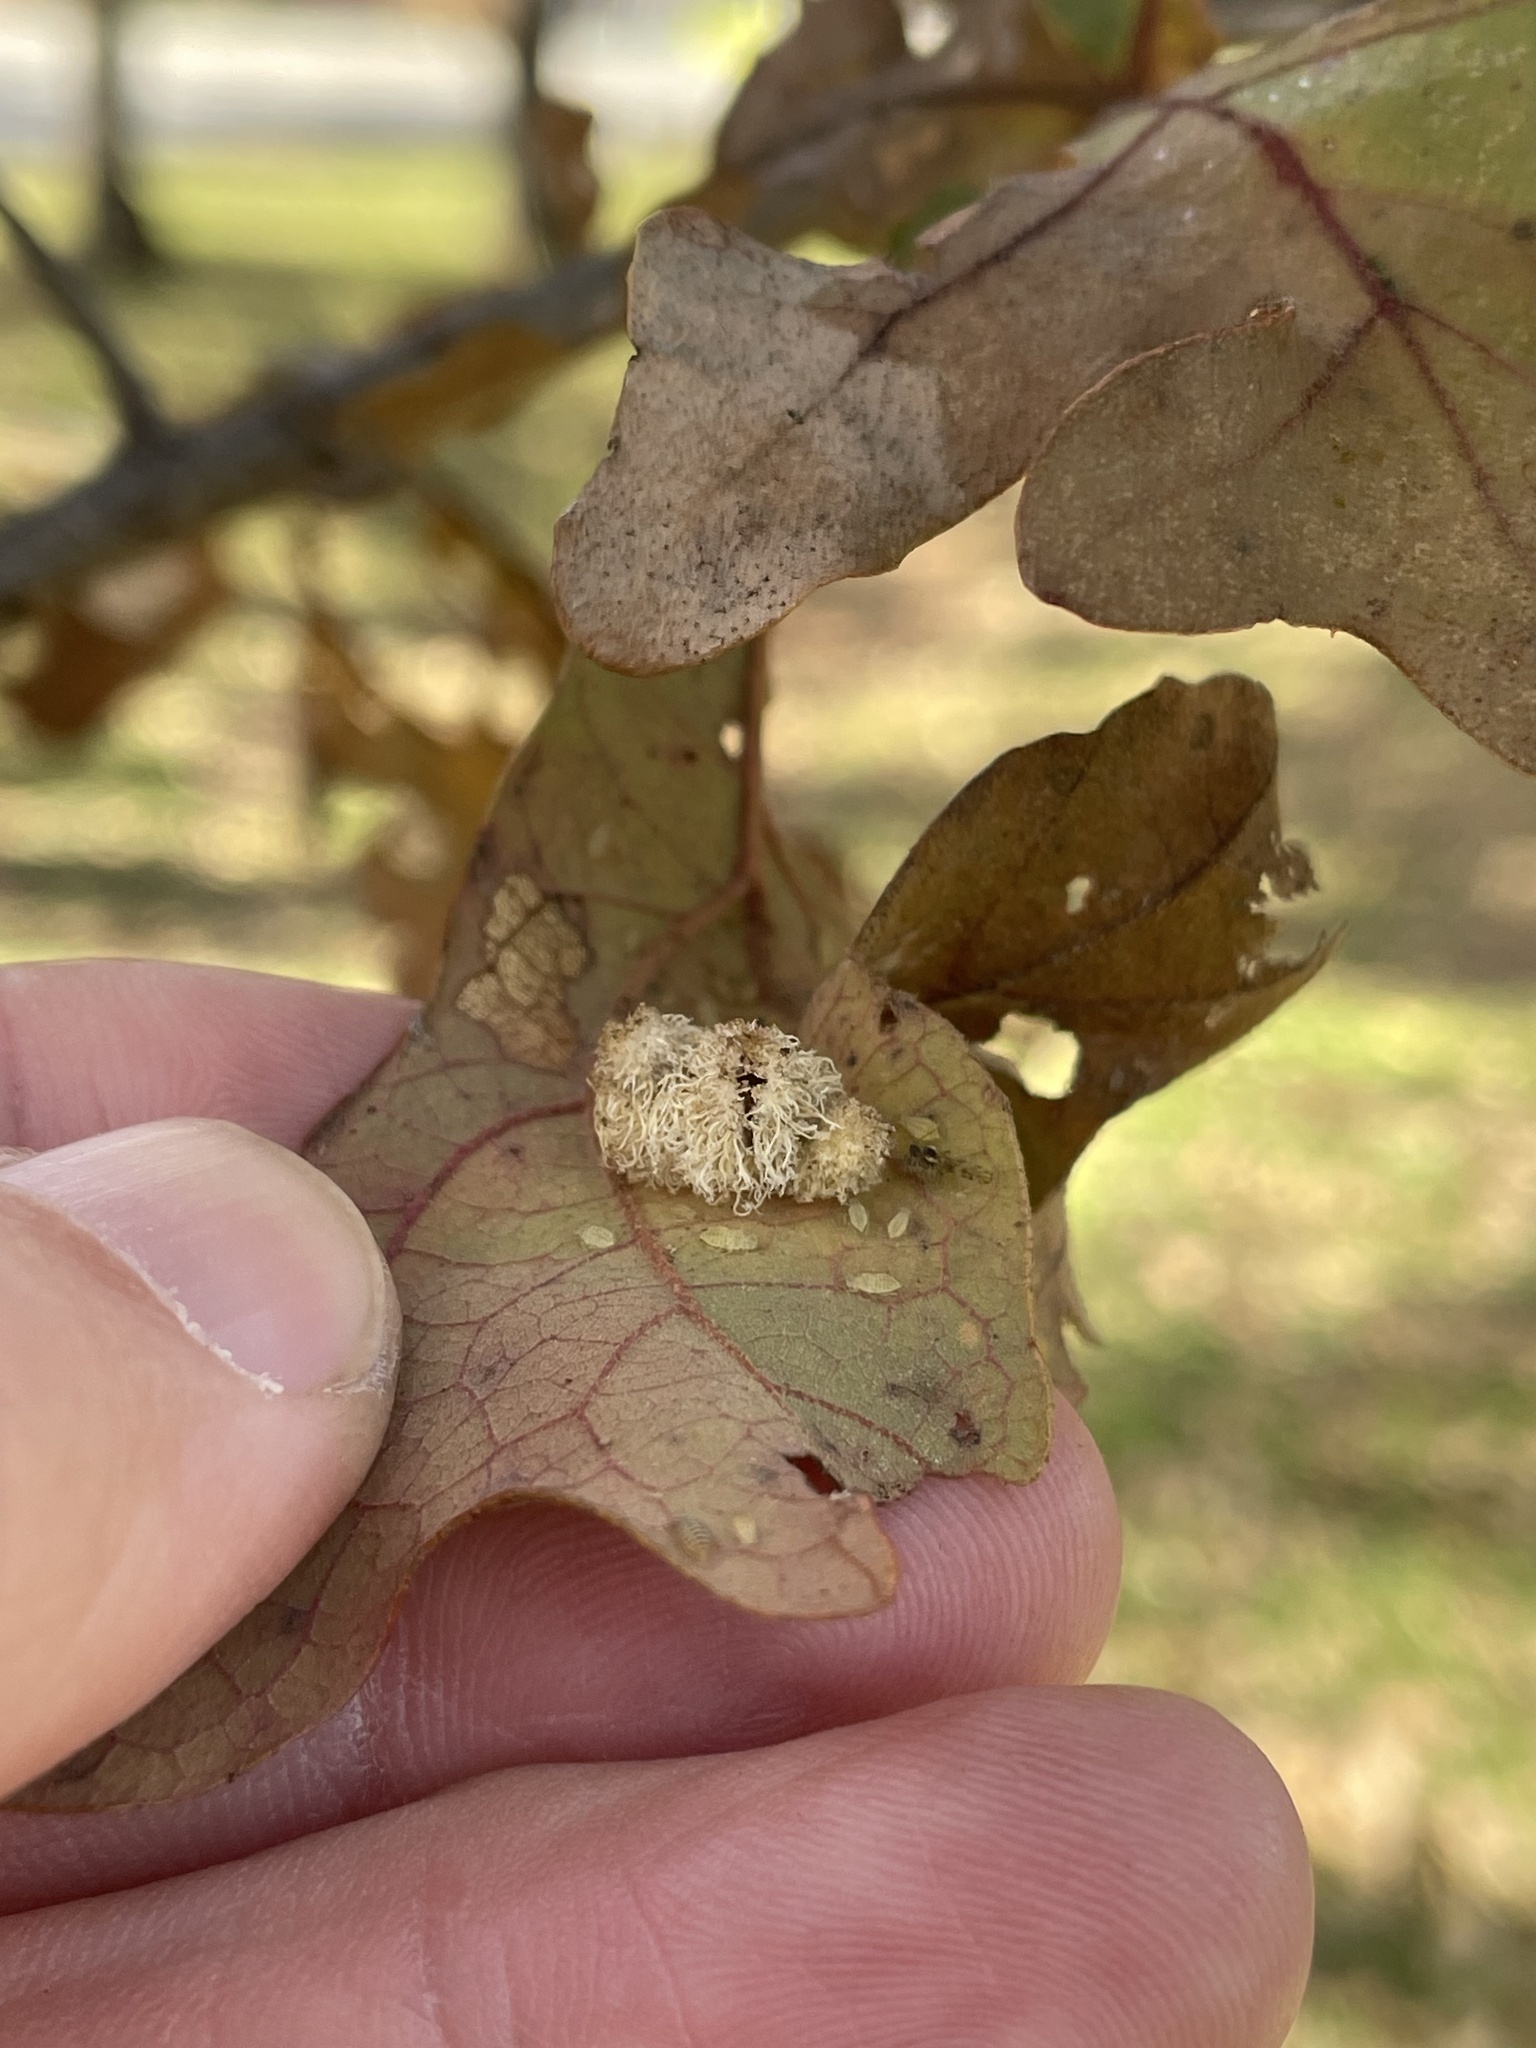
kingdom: Animalia
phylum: Arthropoda
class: Insecta
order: Hymenoptera
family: Cynipidae
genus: Andricus
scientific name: Andricus
